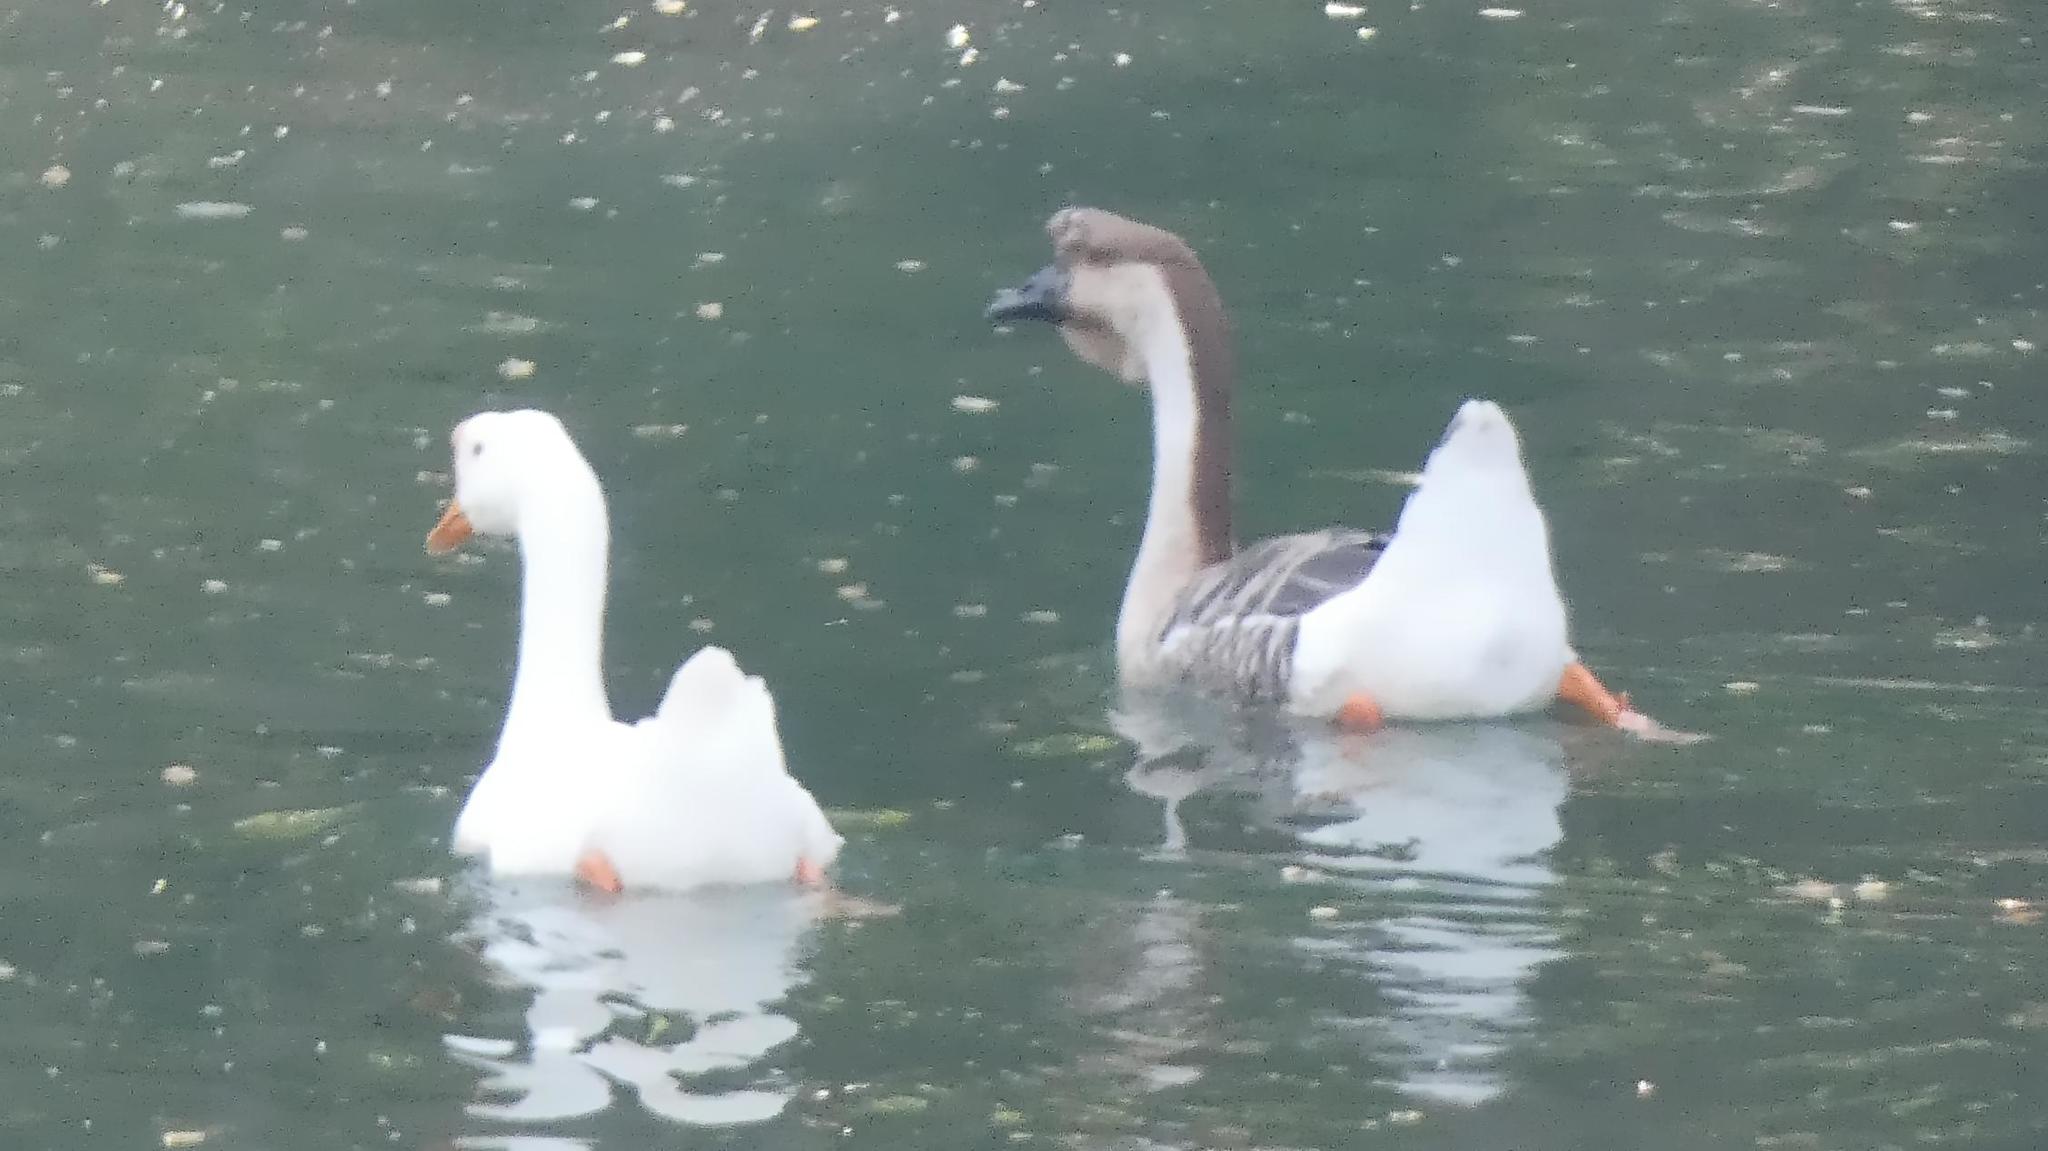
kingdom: Animalia
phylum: Chordata
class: Aves
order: Anseriformes
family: Anatidae
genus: Anser
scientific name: Anser cygnoides
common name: Swan goose
